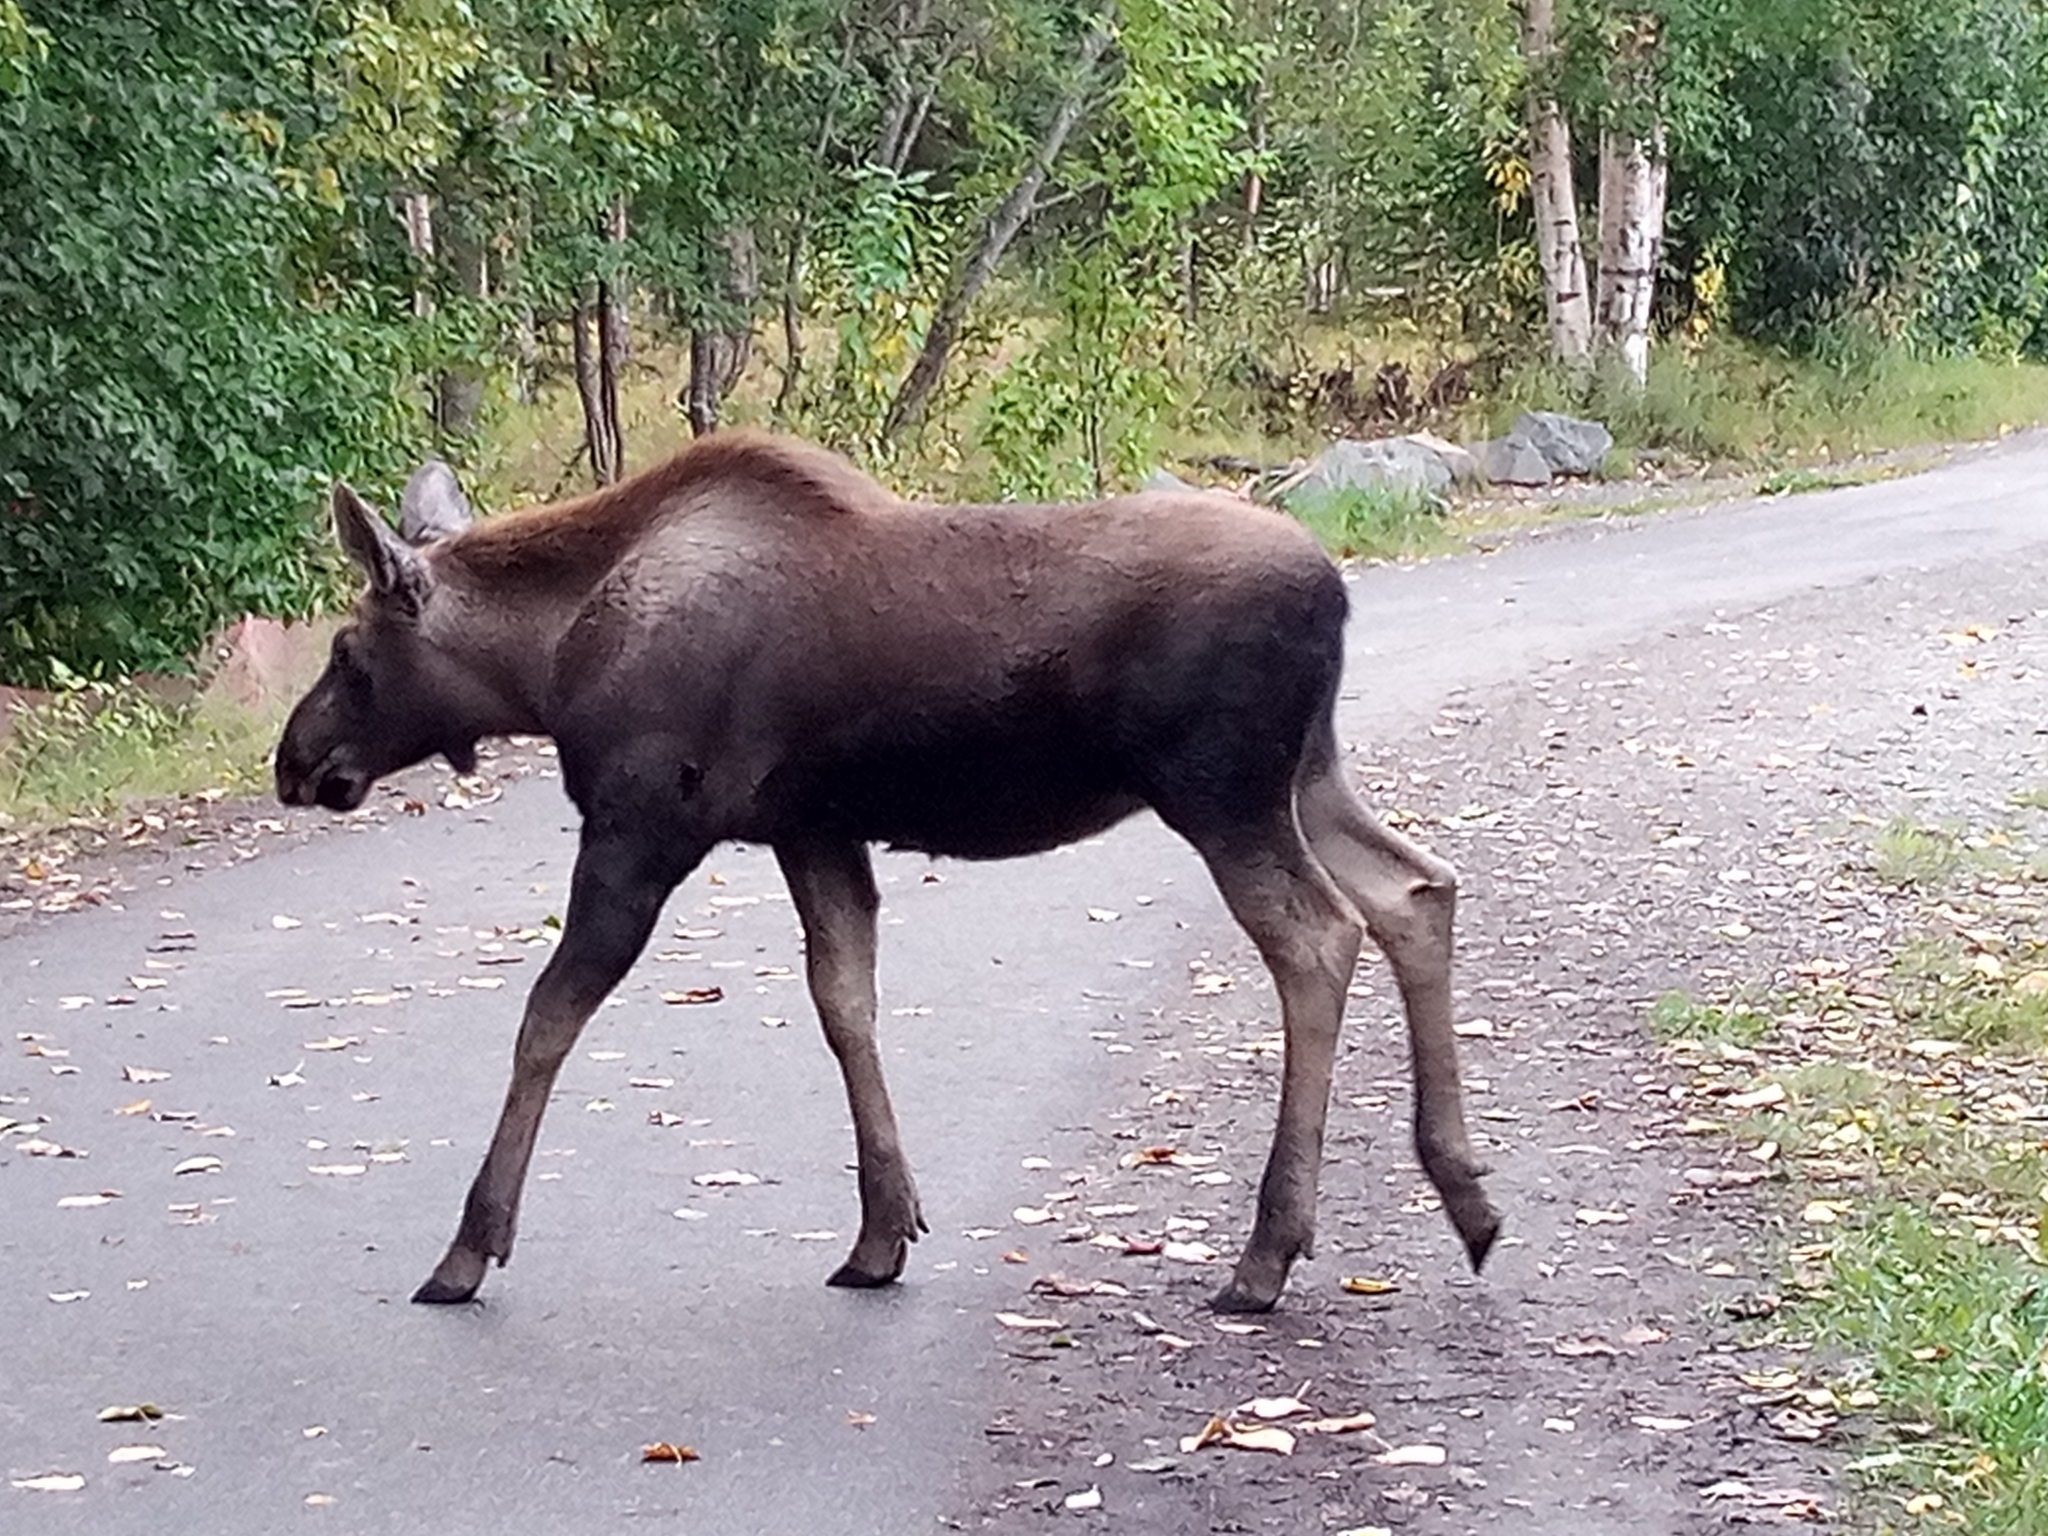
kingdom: Animalia
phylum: Chordata
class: Mammalia
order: Artiodactyla
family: Cervidae
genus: Alces
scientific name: Alces alces
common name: Moose
